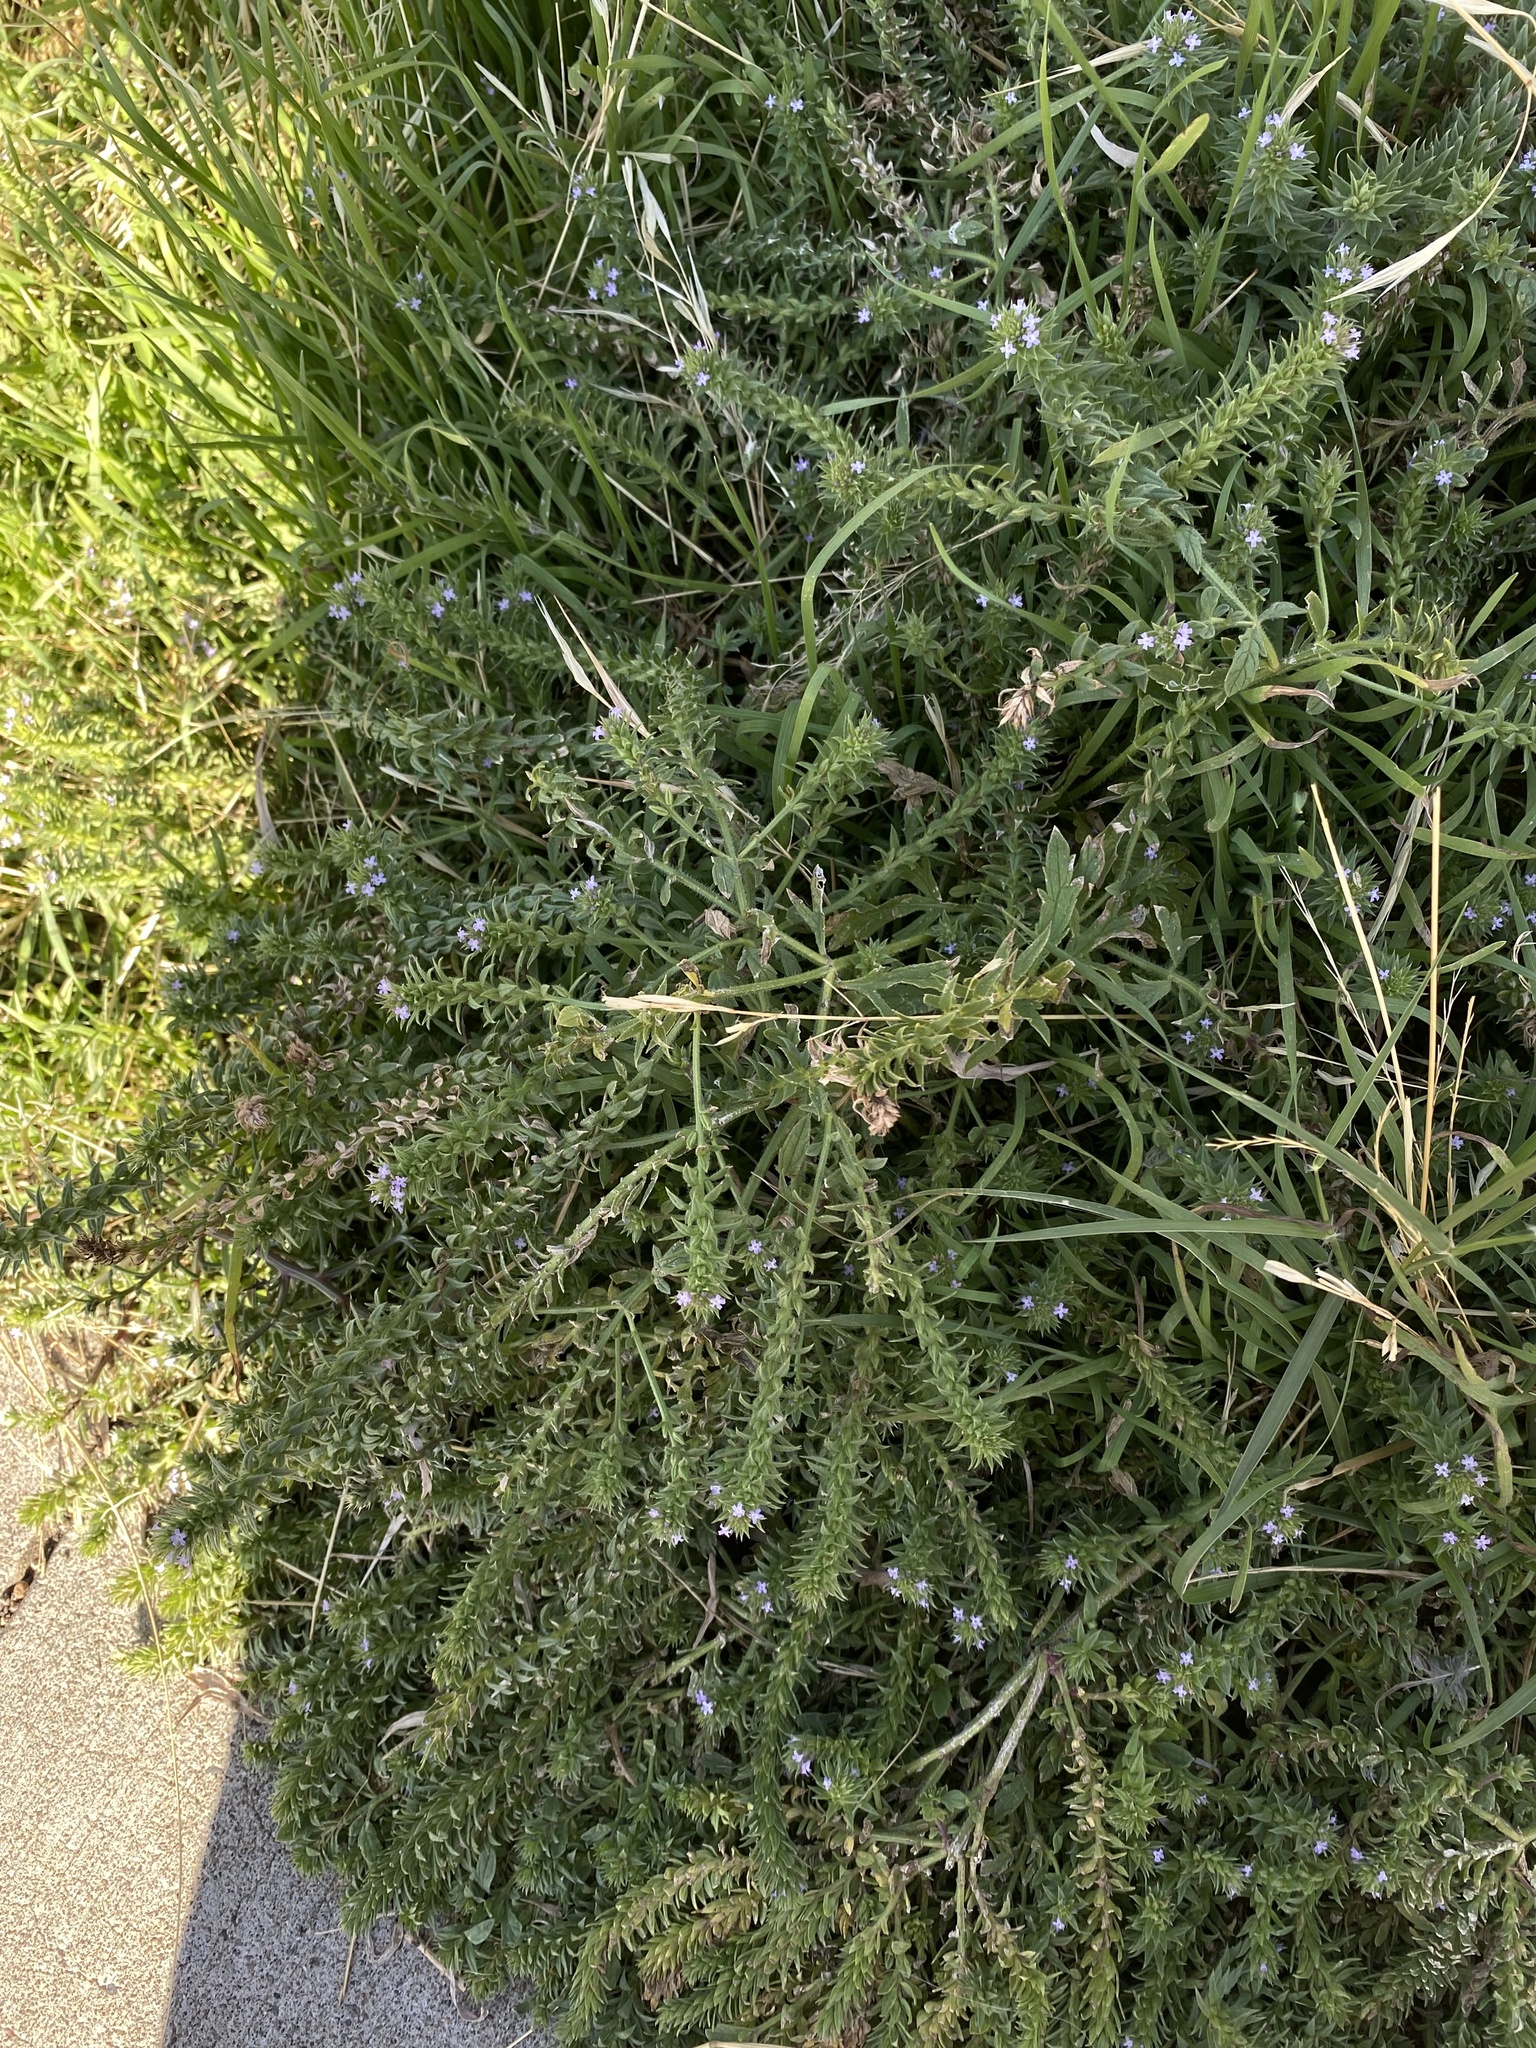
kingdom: Plantae
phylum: Tracheophyta
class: Magnoliopsida
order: Lamiales
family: Verbenaceae
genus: Verbena
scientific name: Verbena bracteata
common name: Bracted vervain
